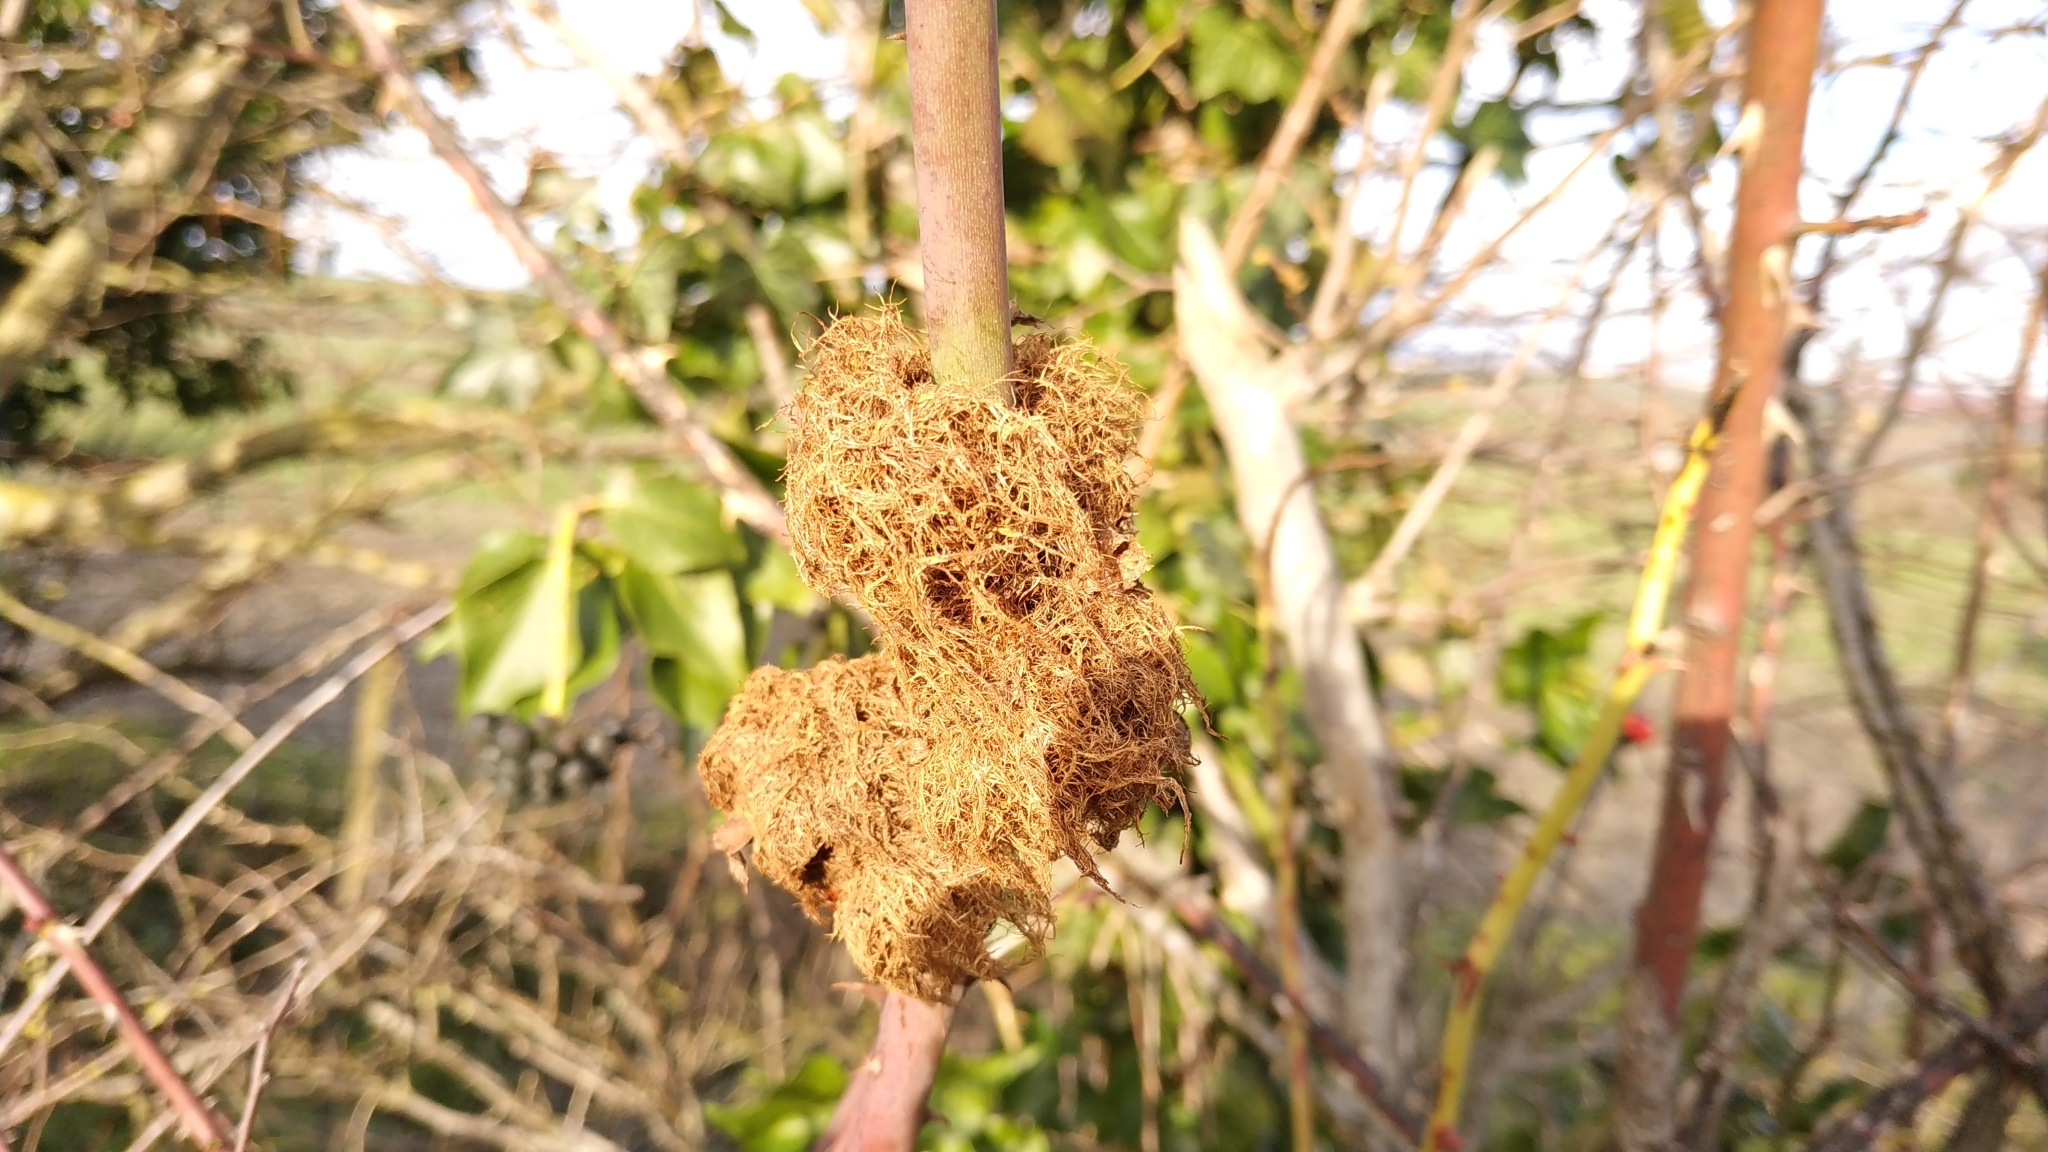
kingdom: Animalia
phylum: Arthropoda
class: Insecta
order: Hymenoptera
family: Cynipidae
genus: Diplolepis
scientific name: Diplolepis rosae
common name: Bedeguar gall
